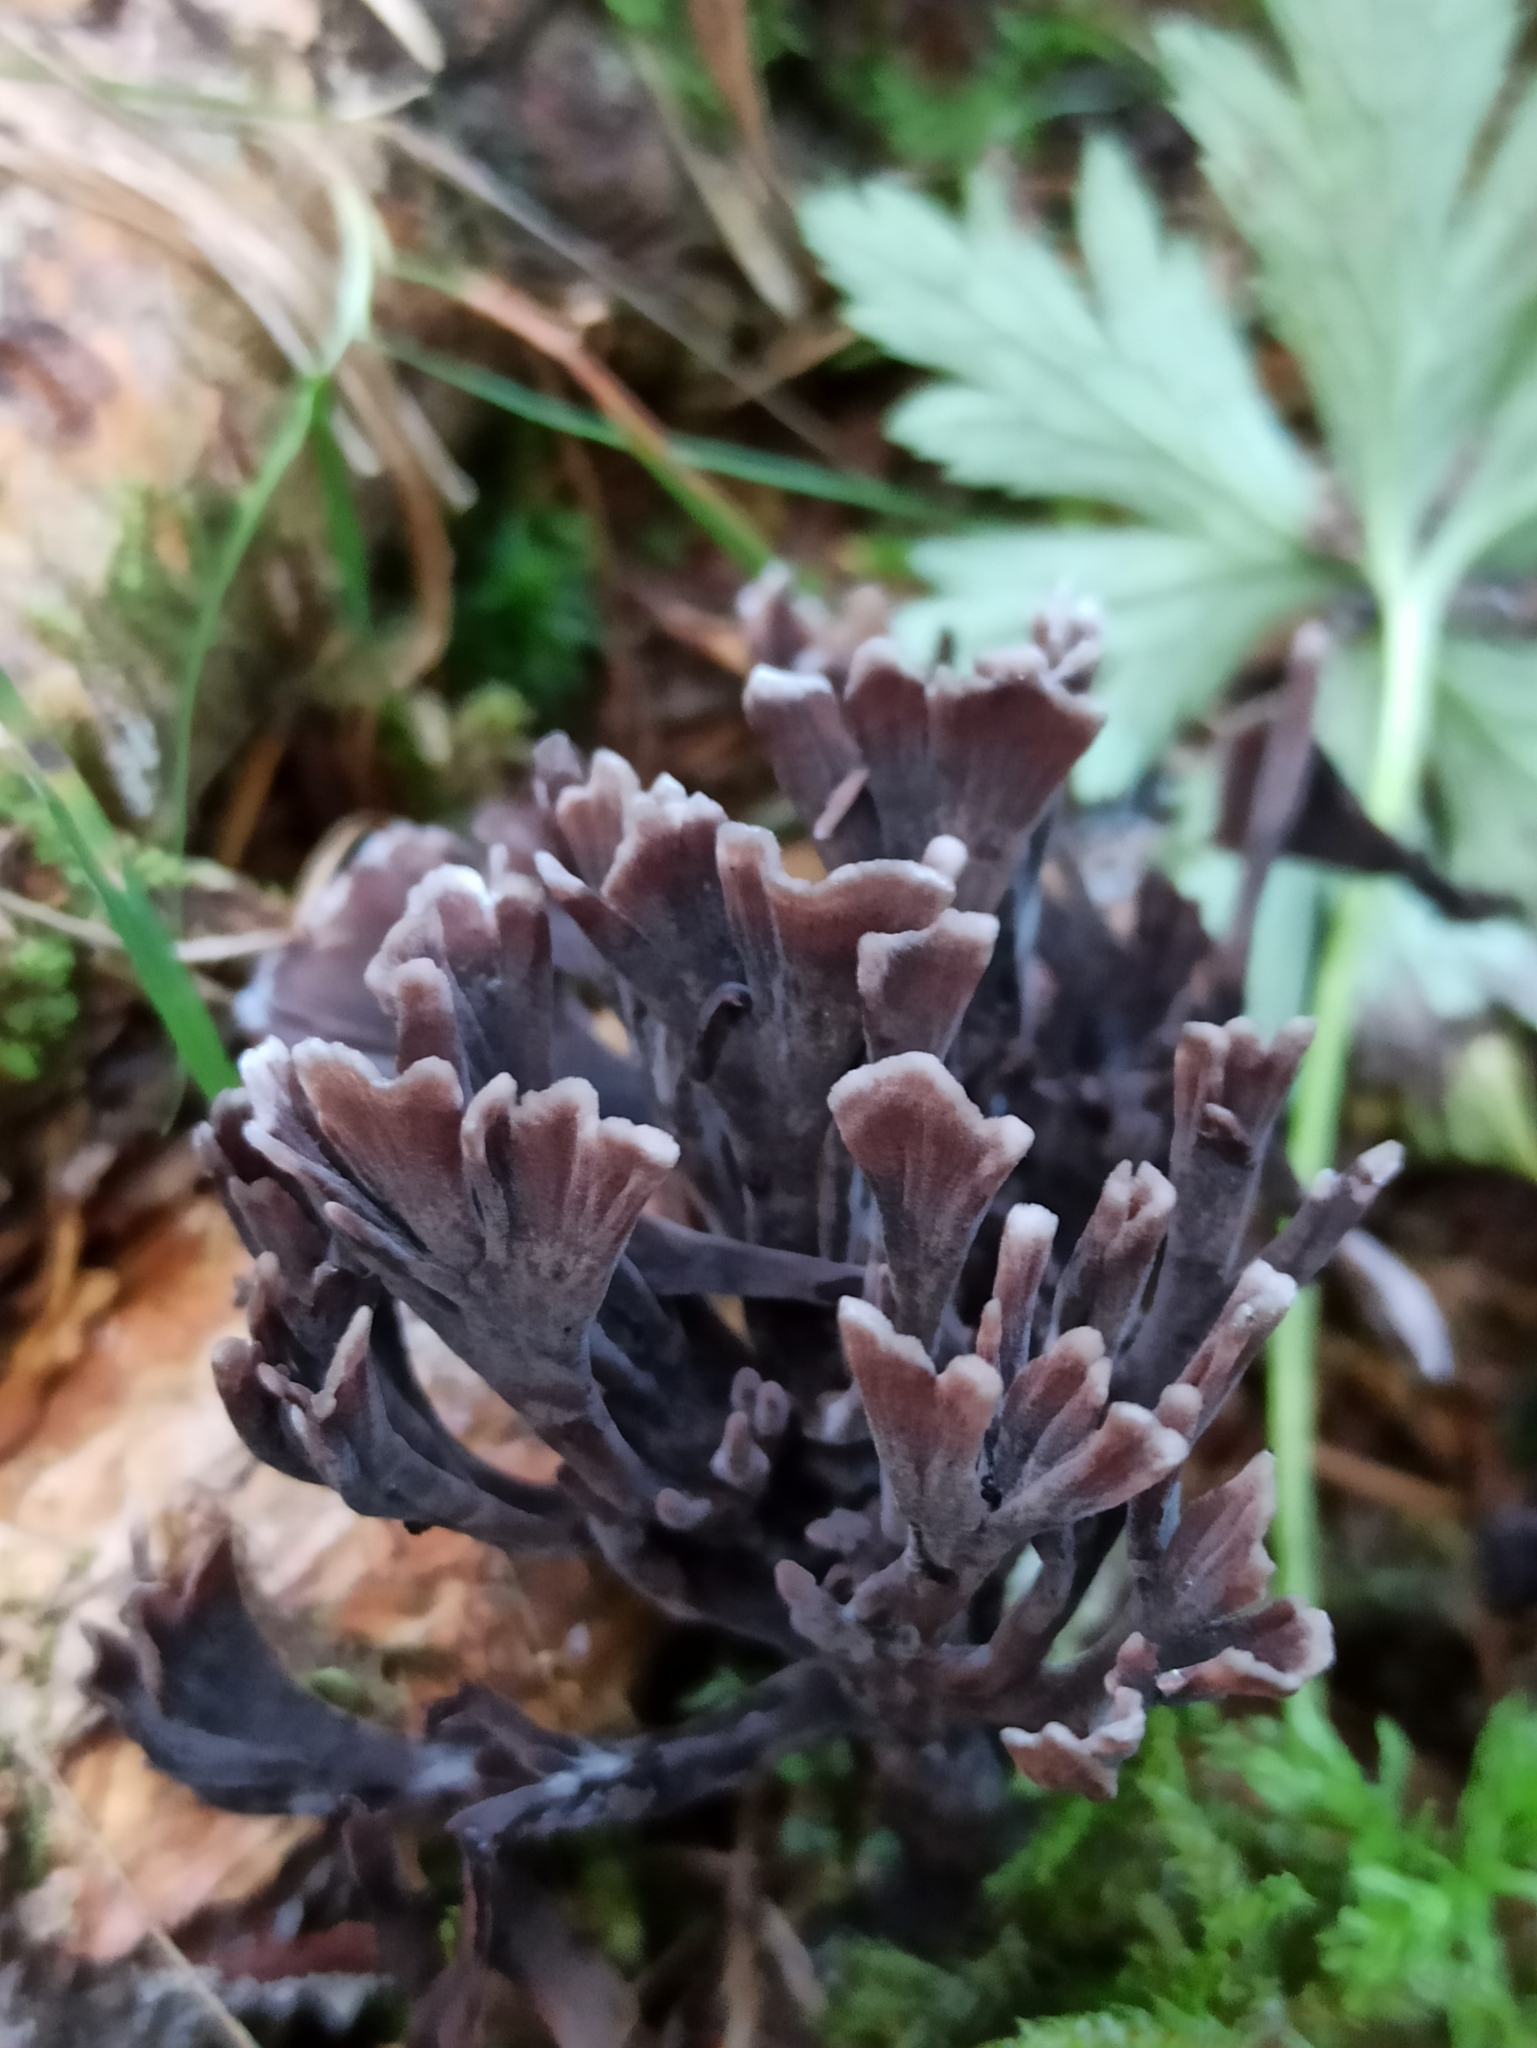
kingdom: Fungi
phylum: Basidiomycota
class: Agaricomycetes
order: Thelephorales
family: Thelephoraceae
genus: Thelephora
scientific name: Thelephora palmata
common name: Stinking earthfan
